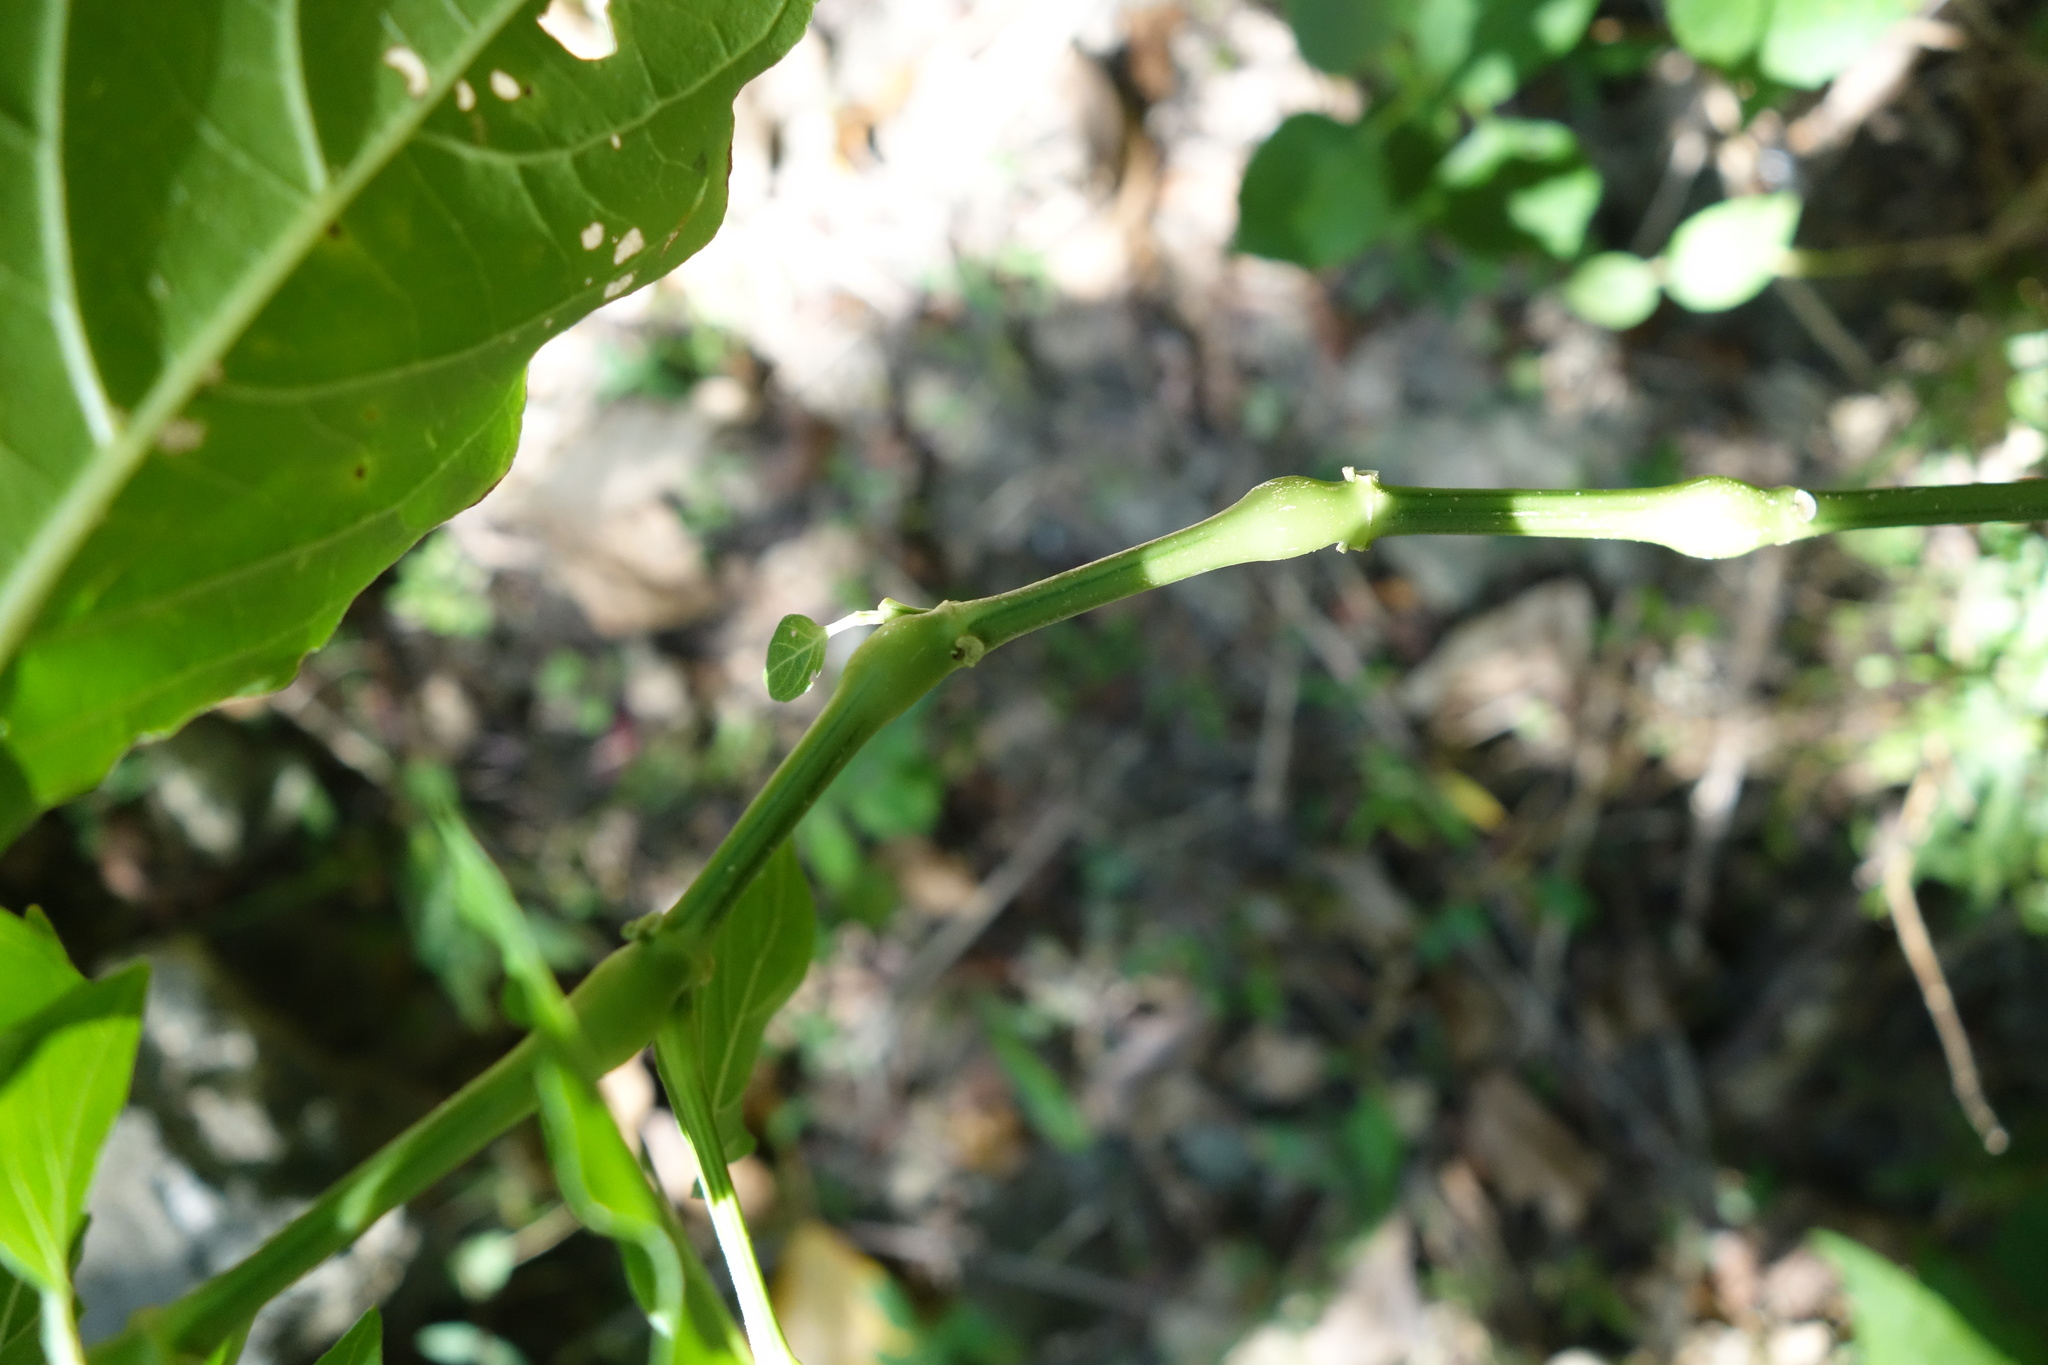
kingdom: Plantae
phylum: Tracheophyta
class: Magnoliopsida
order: Lamiales
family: Acanthaceae
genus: Hypoestes
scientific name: Hypoestes purpurea
